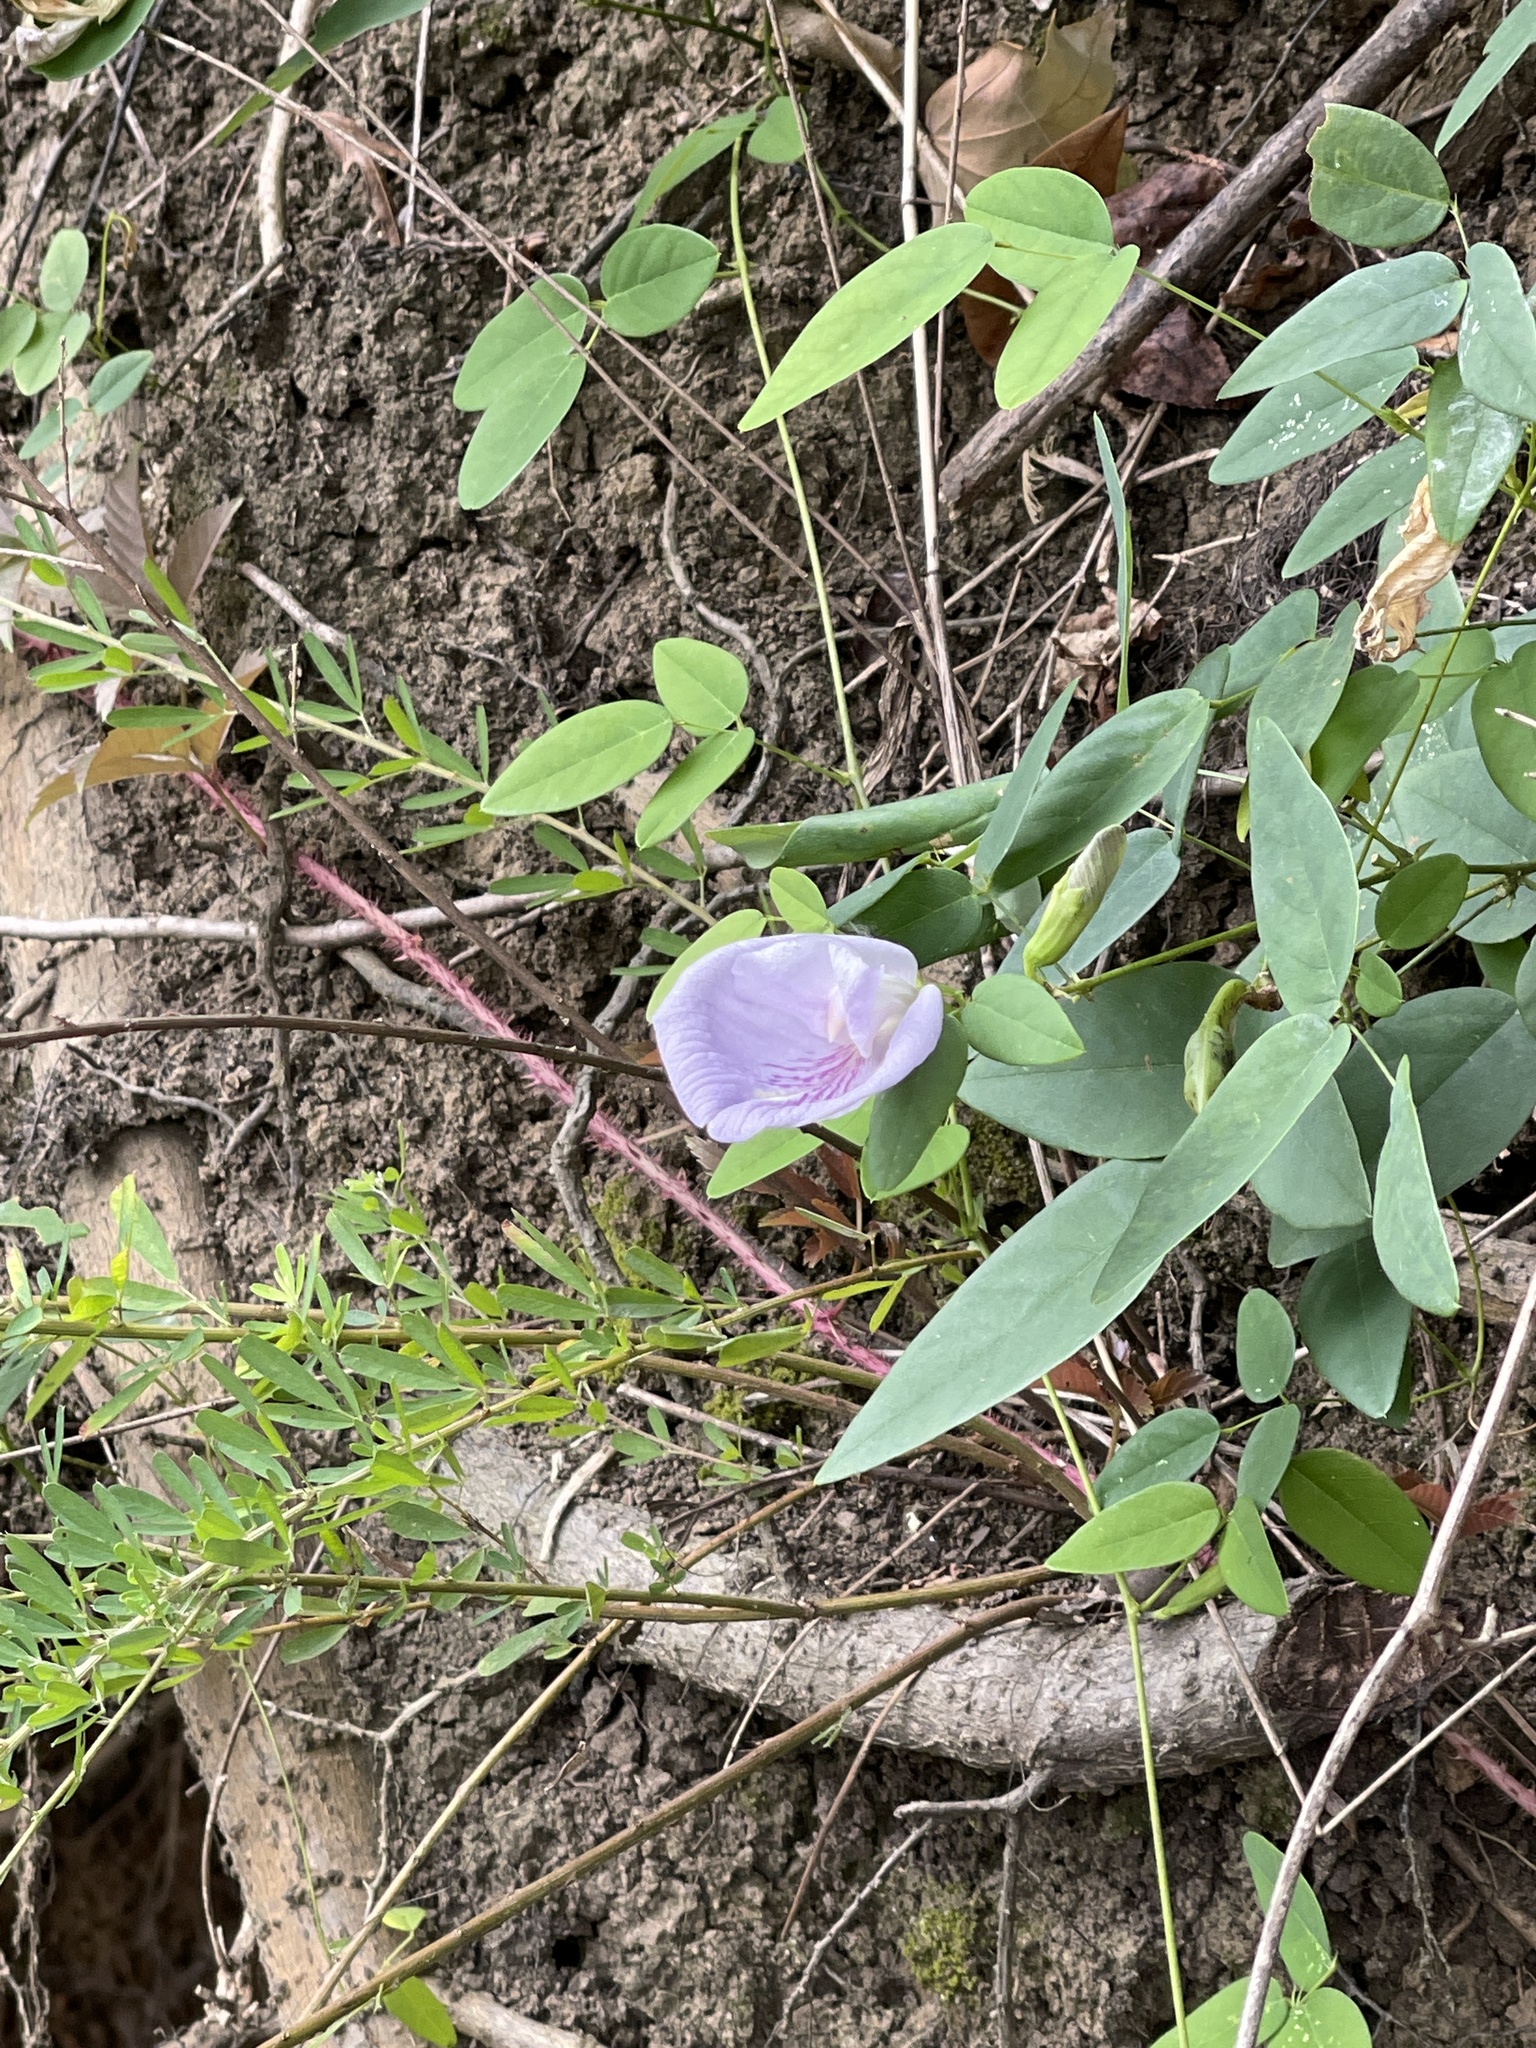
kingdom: Plantae
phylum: Tracheophyta
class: Magnoliopsida
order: Fabales
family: Fabaceae
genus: Clitoria
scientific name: Clitoria mariana
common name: Butterfly-pea
